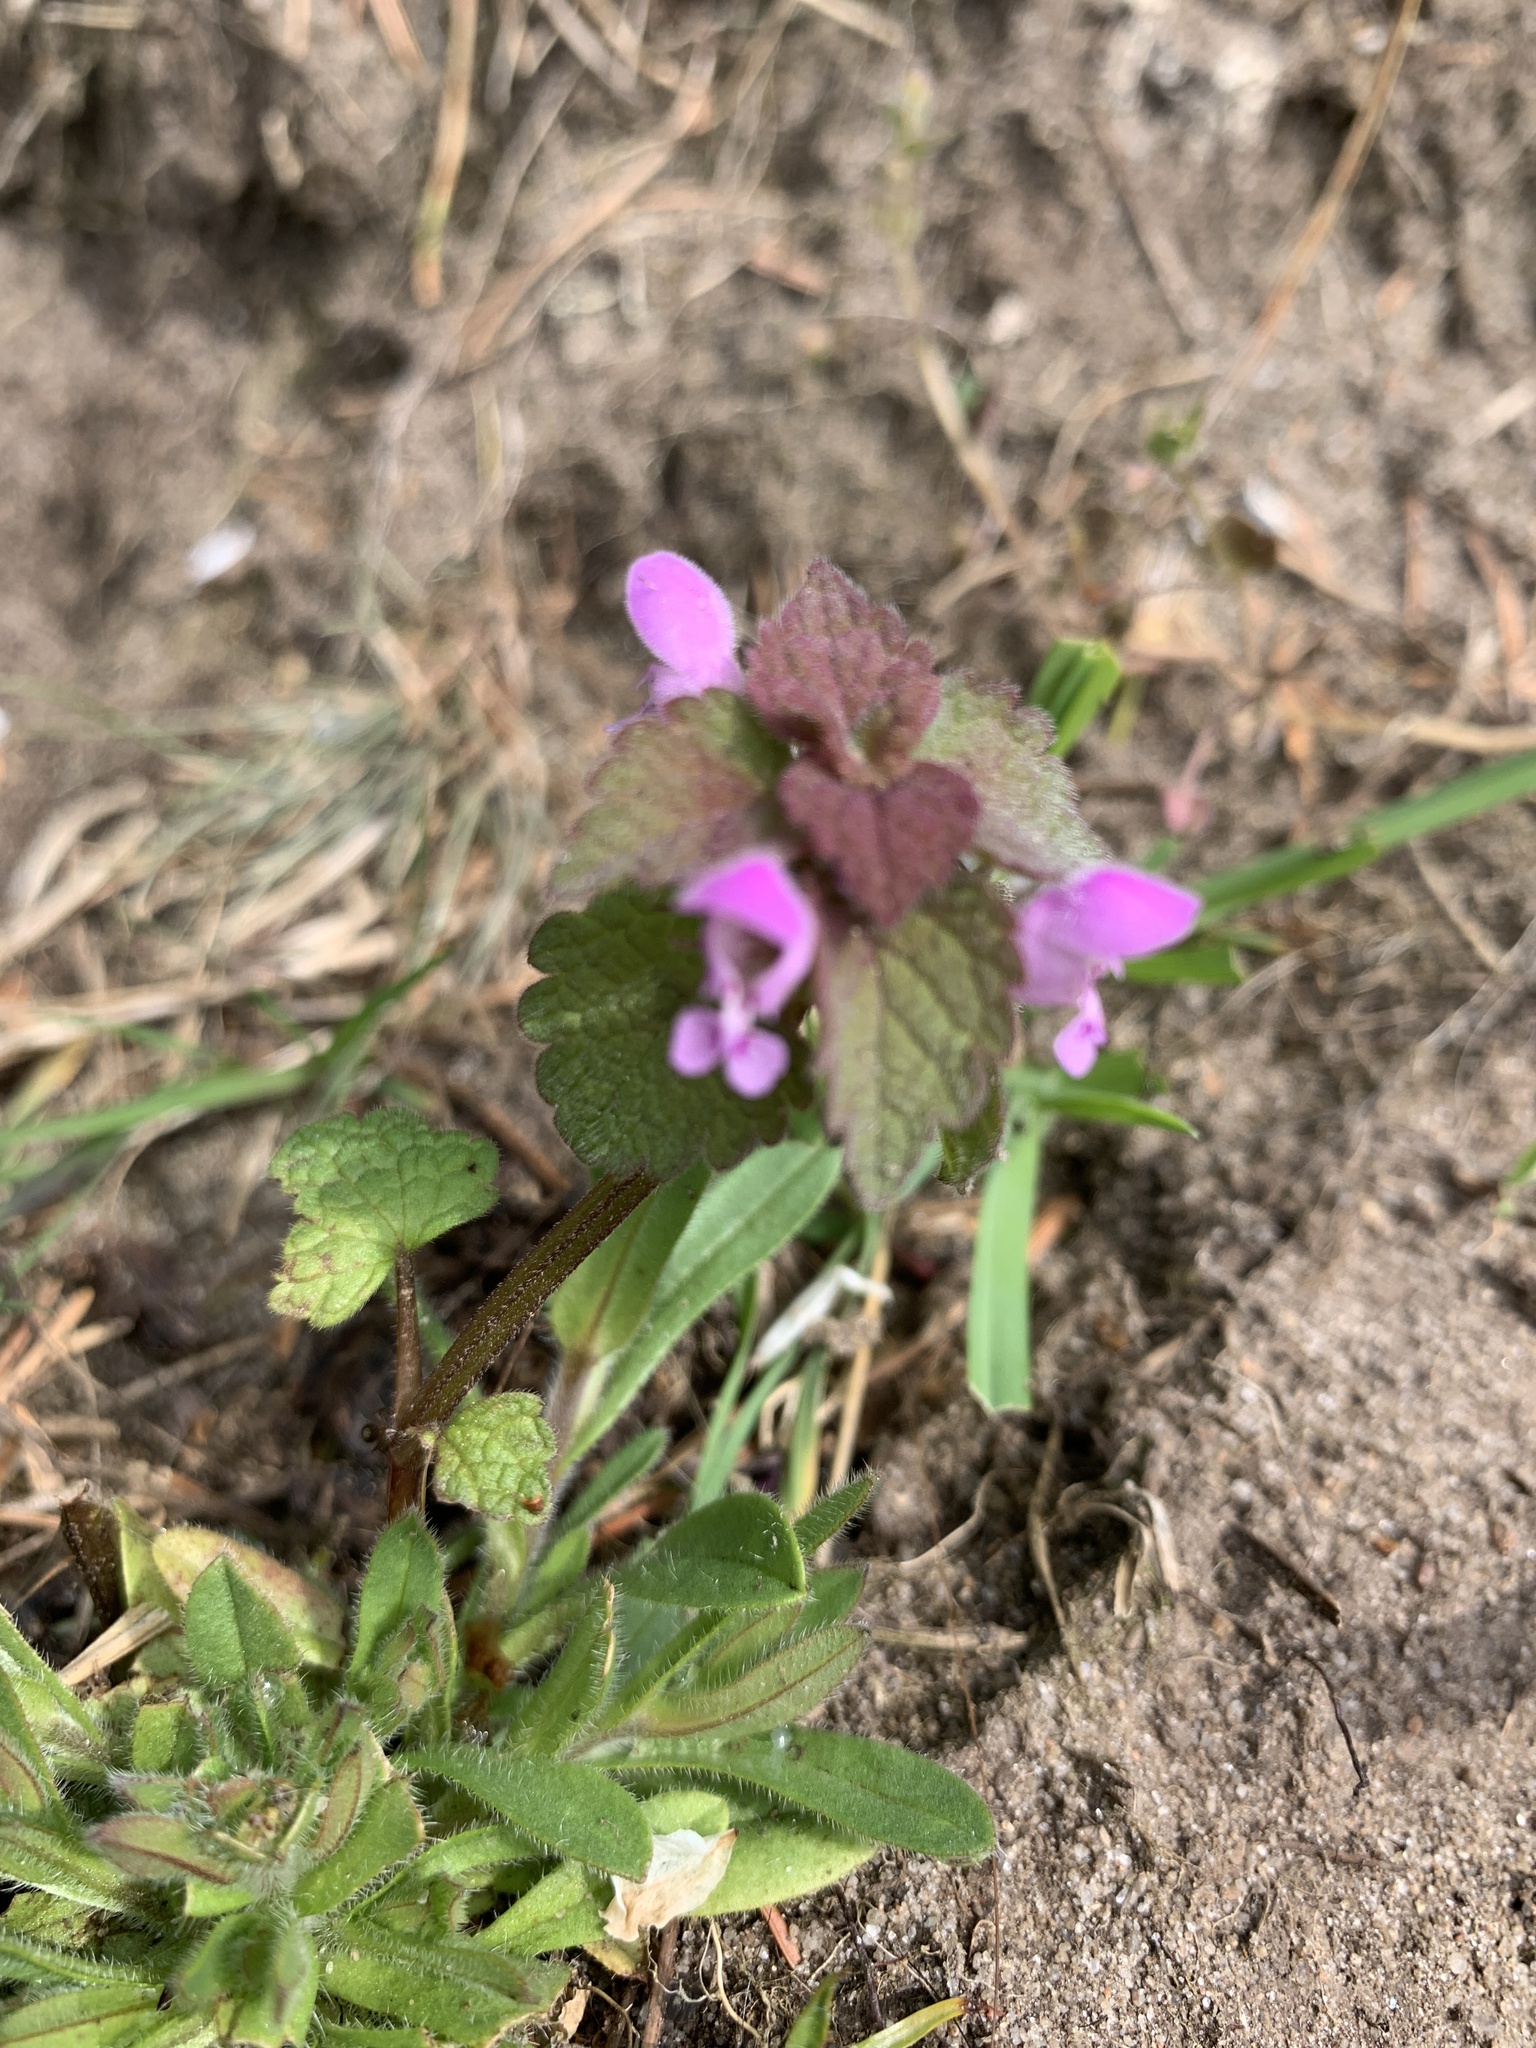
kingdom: Plantae
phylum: Tracheophyta
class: Magnoliopsida
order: Lamiales
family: Lamiaceae
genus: Lamium
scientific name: Lamium purpureum
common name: Red dead-nettle
